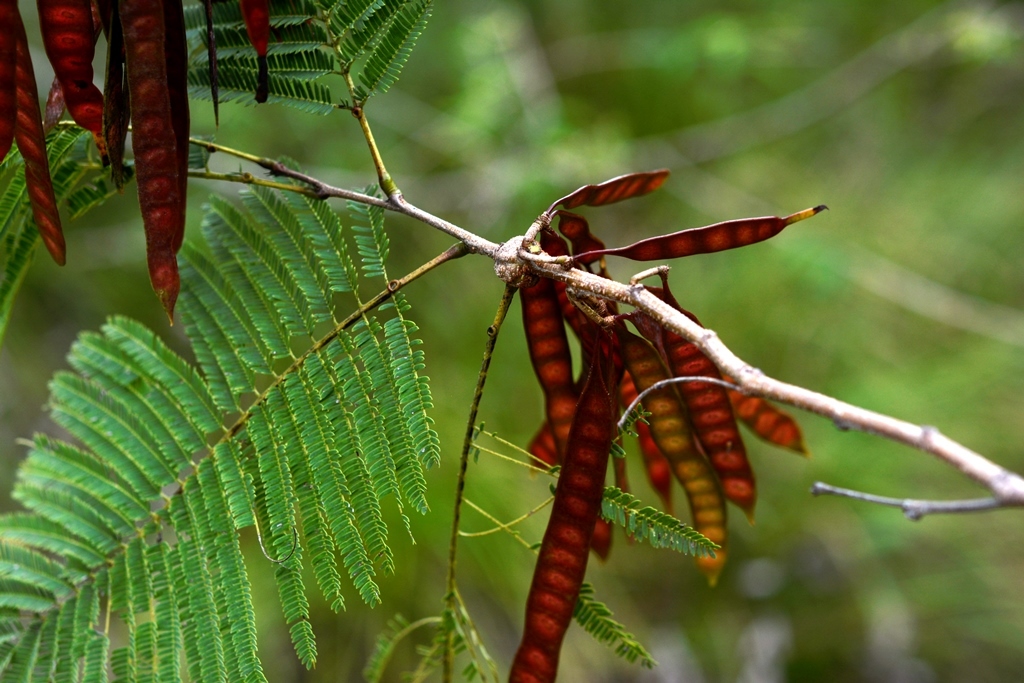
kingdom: Plantae
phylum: Tracheophyta
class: Magnoliopsida
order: Fabales
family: Fabaceae
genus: Leucaena
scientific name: Leucaena collinsii
